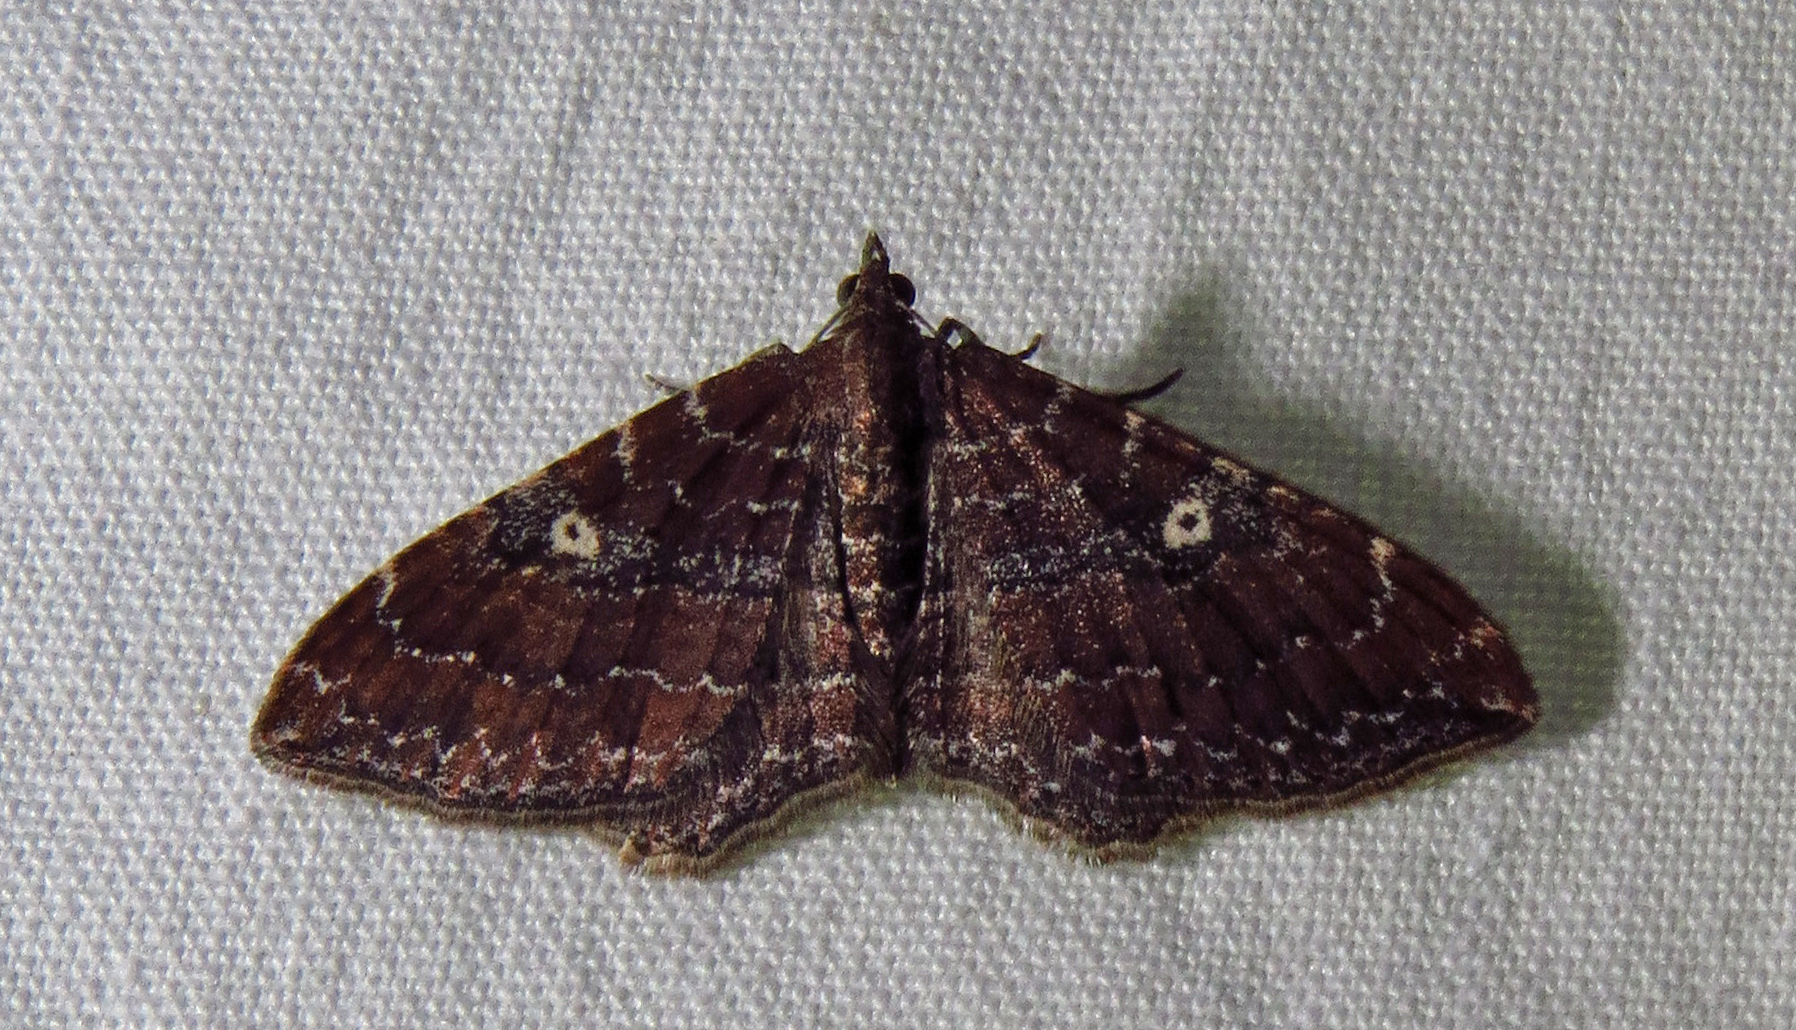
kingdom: Animalia
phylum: Arthropoda
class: Insecta
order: Lepidoptera
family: Geometridae
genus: Orthonama
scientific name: Orthonama obstipata
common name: The gem
